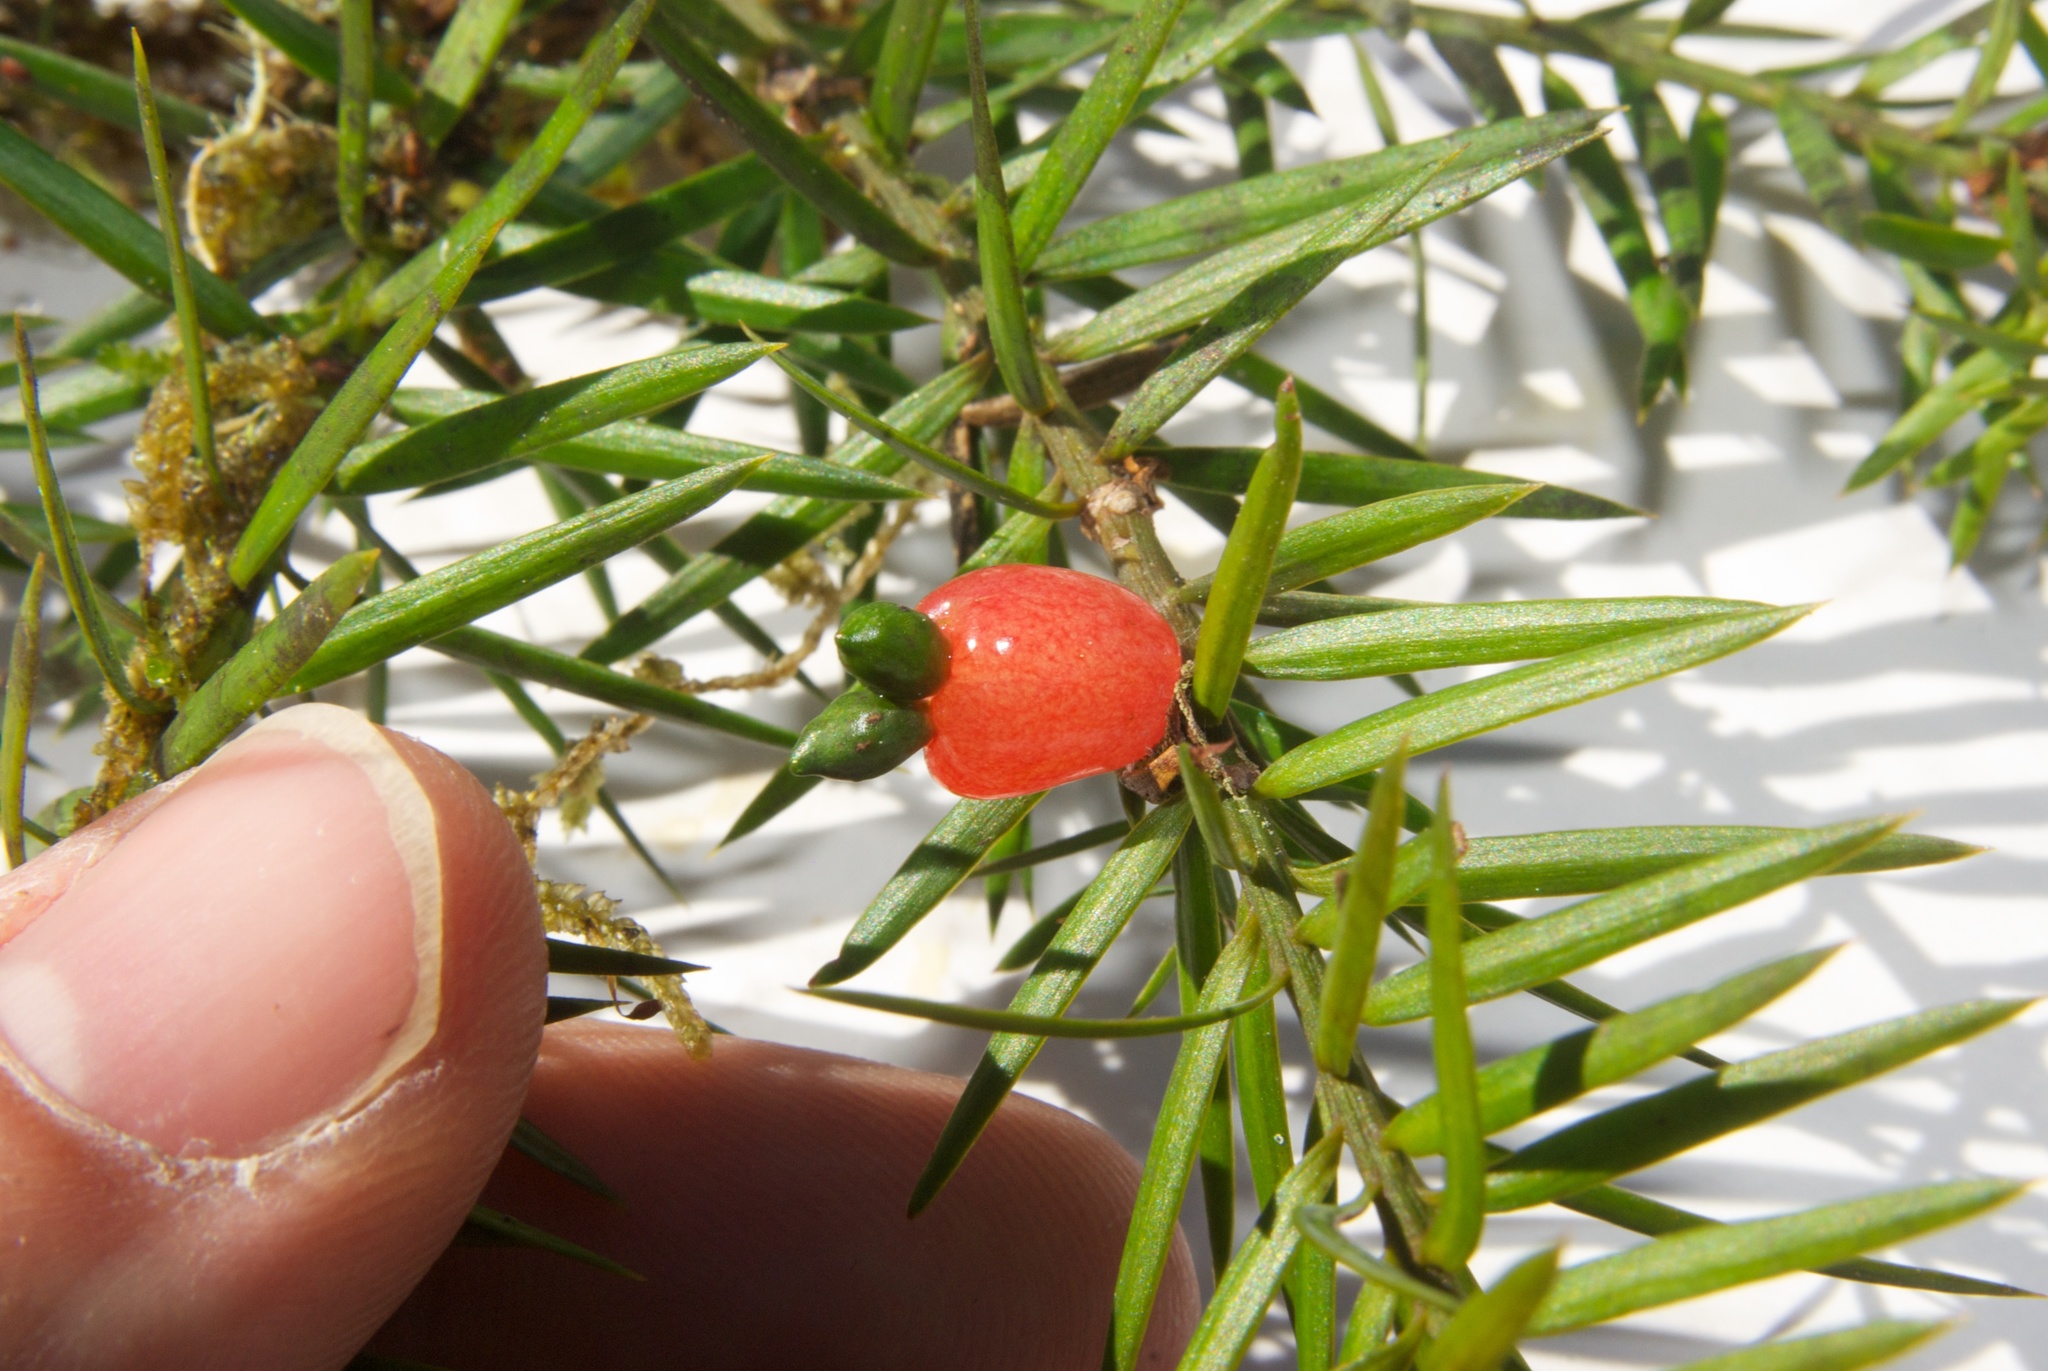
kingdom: Plantae
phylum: Tracheophyta
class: Pinopsida
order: Pinales
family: Podocarpaceae
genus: Podocarpus
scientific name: Podocarpus totara
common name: Totara
